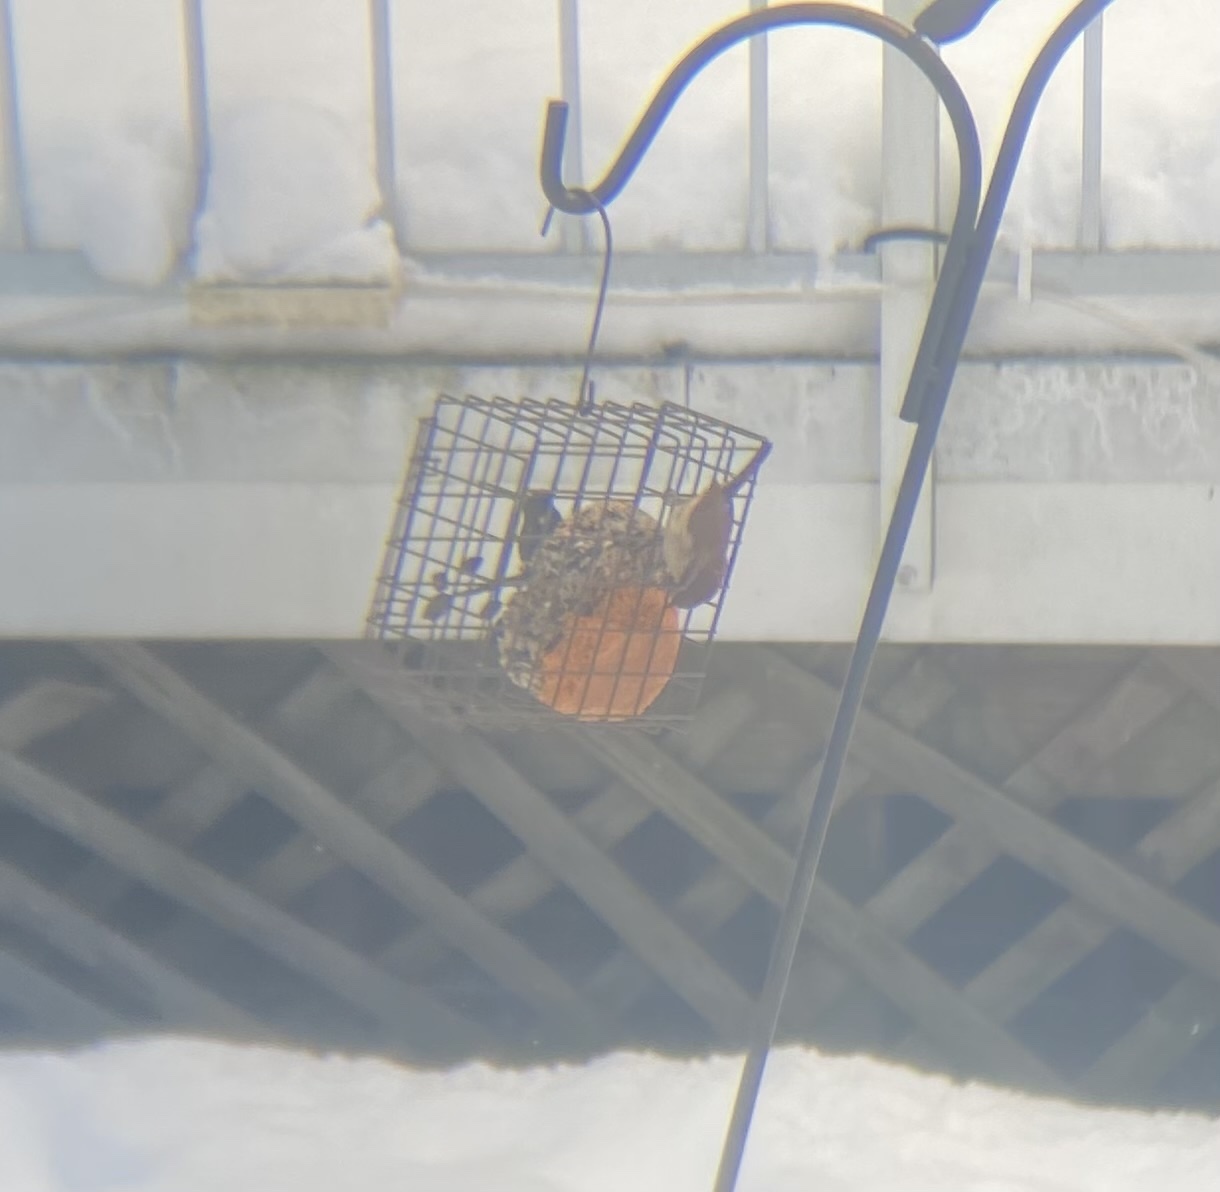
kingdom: Animalia
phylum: Chordata
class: Aves
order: Passeriformes
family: Troglodytidae
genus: Thryothorus
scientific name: Thryothorus ludovicianus
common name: Carolina wren
